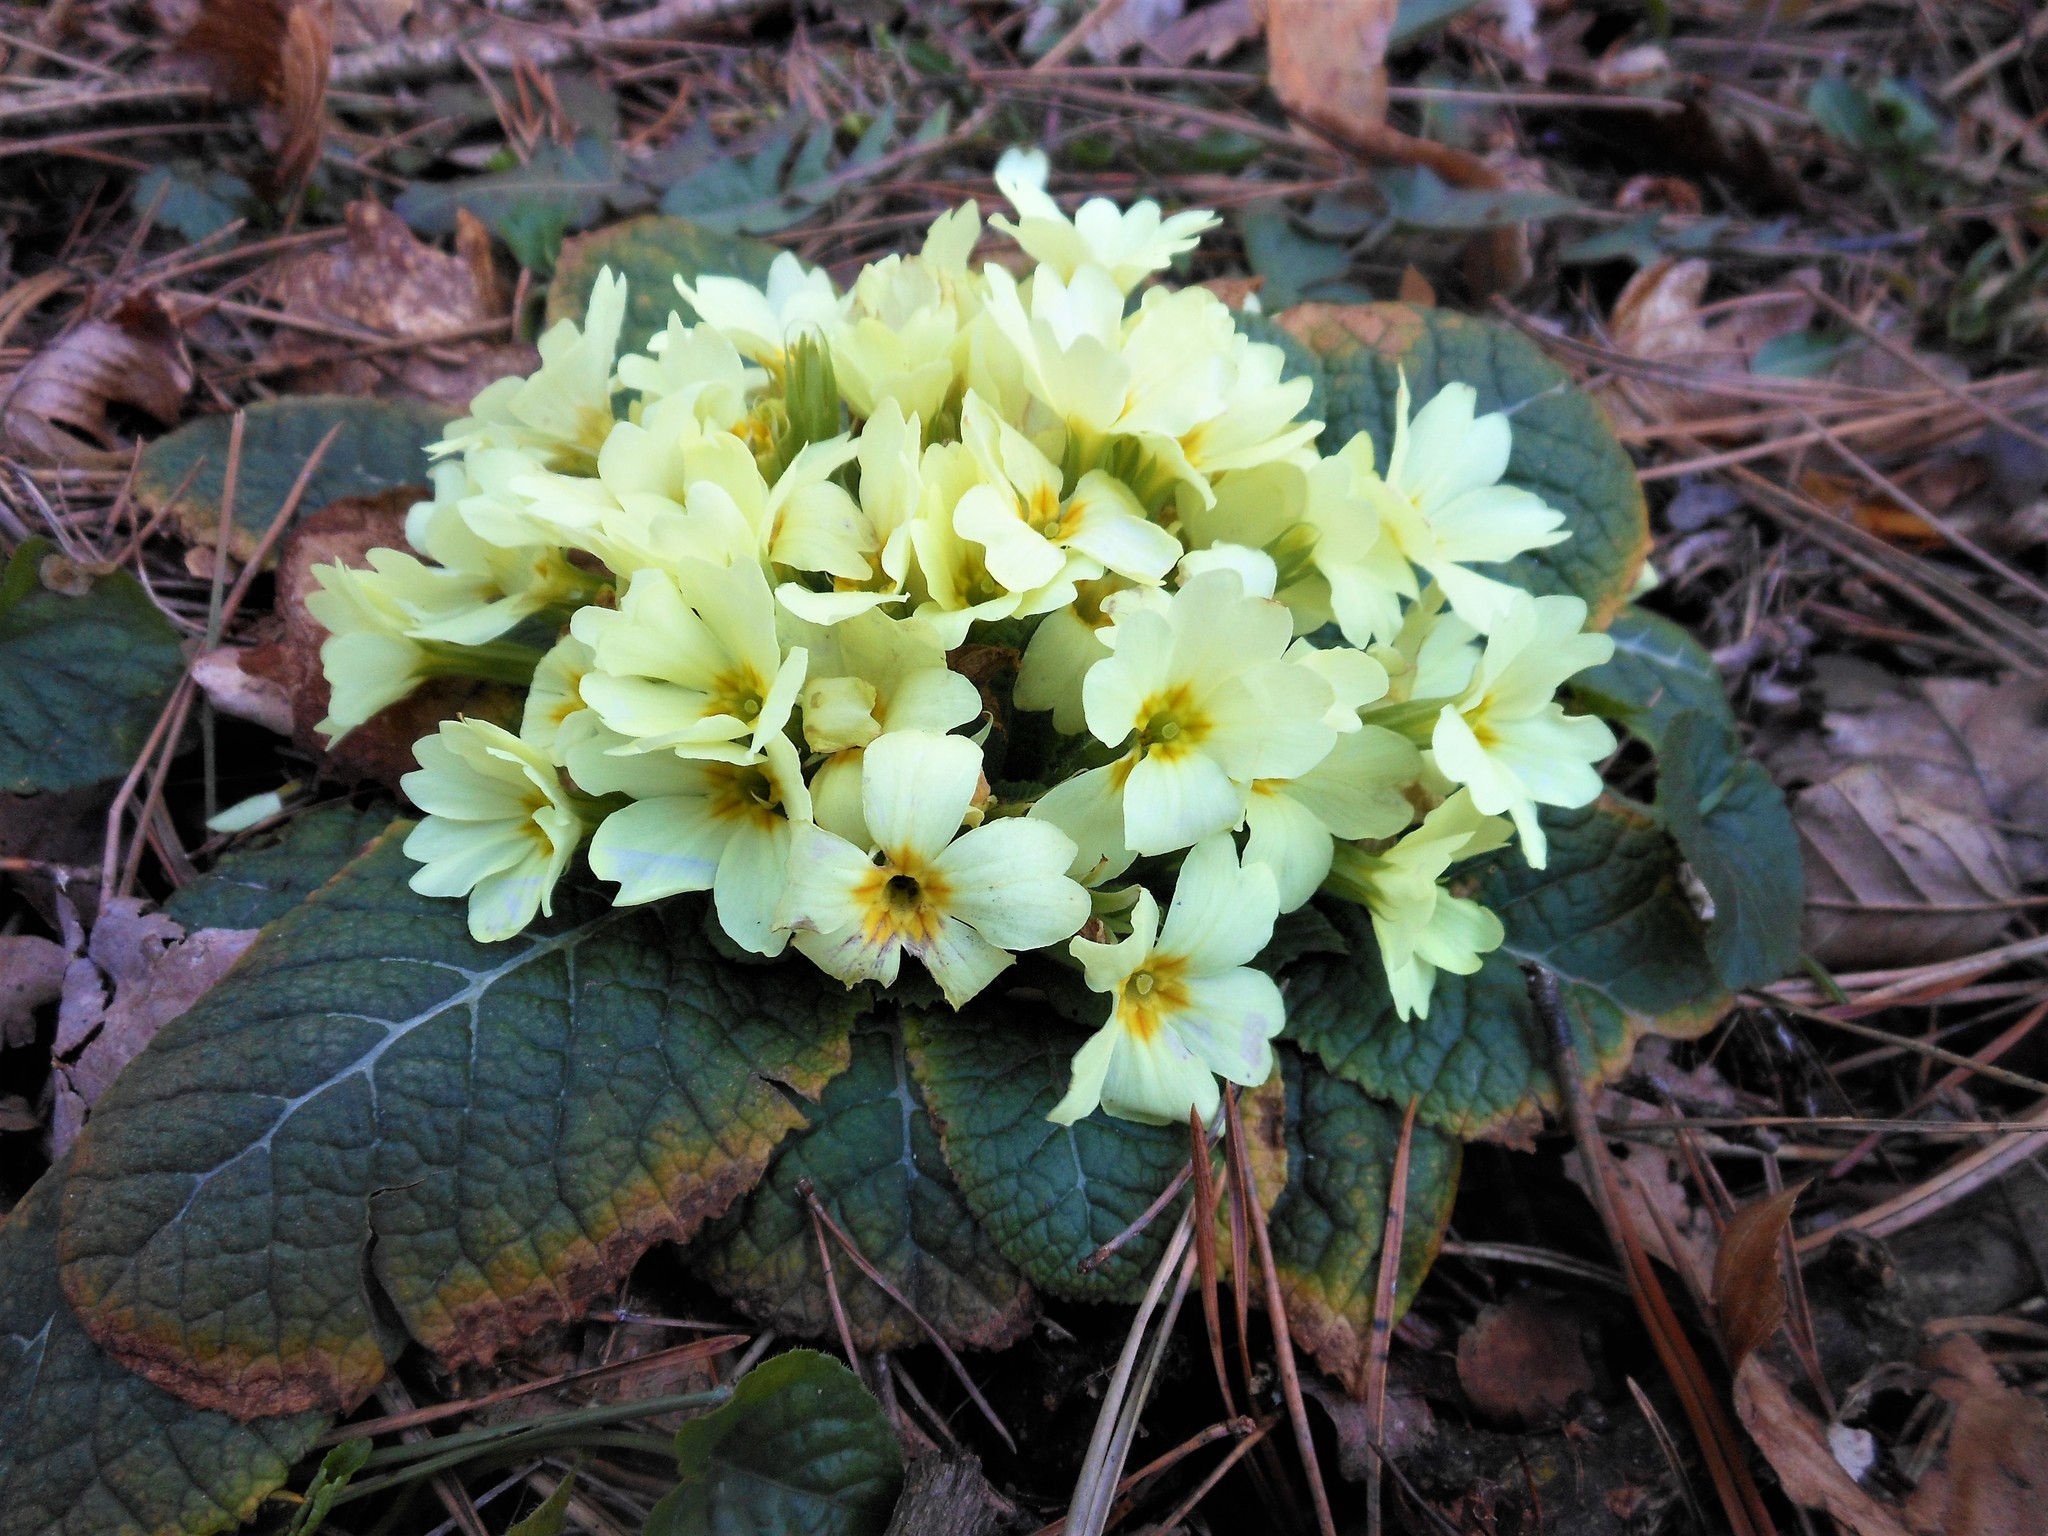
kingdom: Plantae
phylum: Tracheophyta
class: Magnoliopsida
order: Ericales
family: Primulaceae
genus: Primula
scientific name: Primula vulgaris
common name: Primrose
